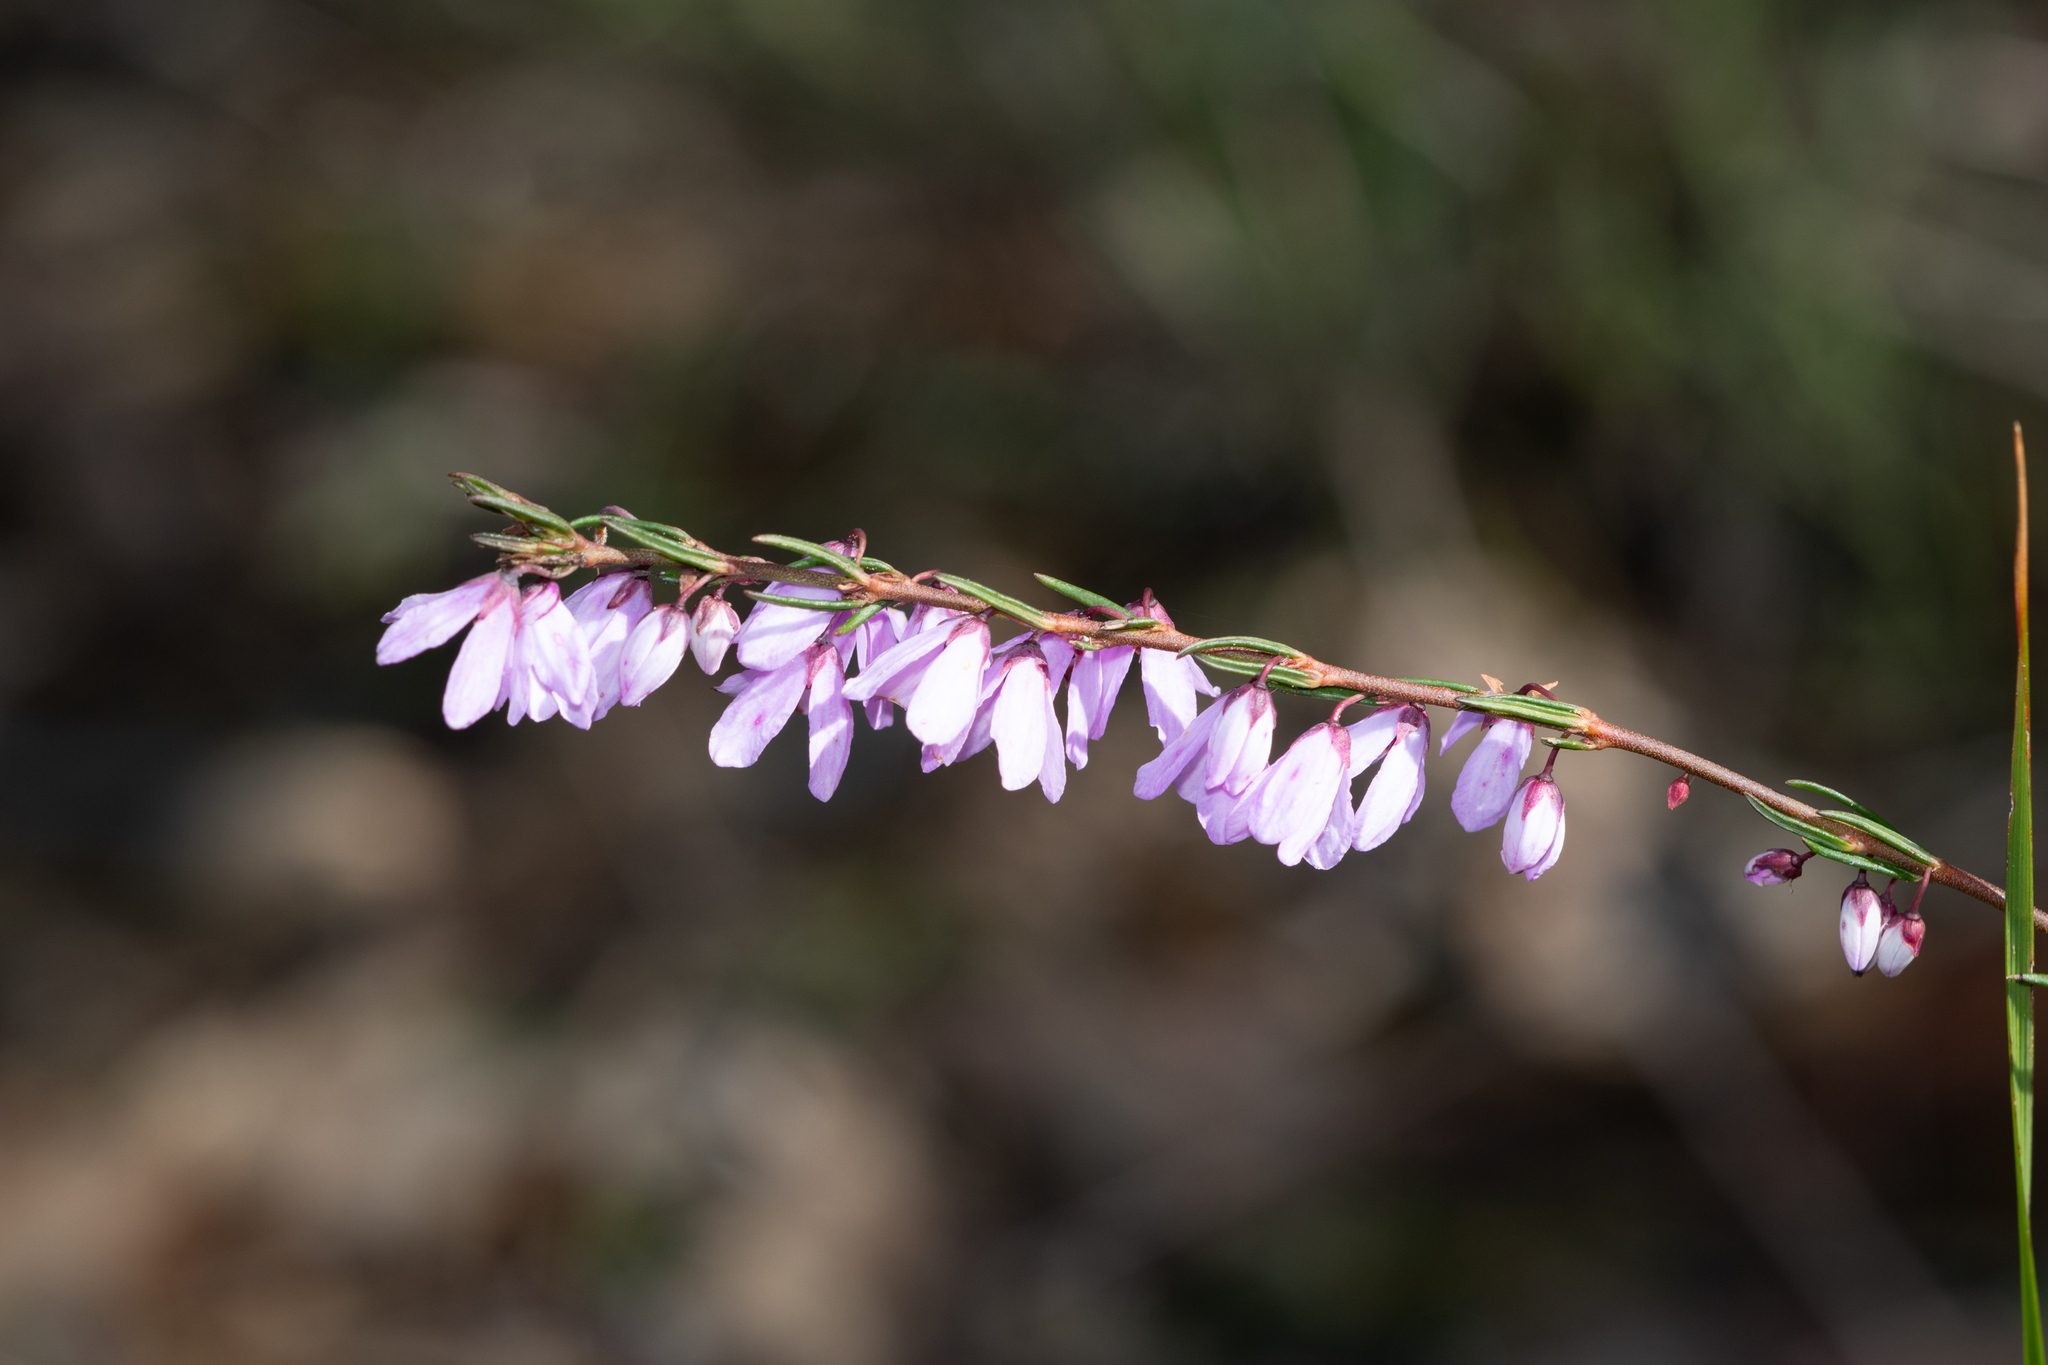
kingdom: Plantae
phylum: Tracheophyta
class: Magnoliopsida
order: Oxalidales
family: Elaeocarpaceae
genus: Tetratheca
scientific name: Tetratheca pilosa
